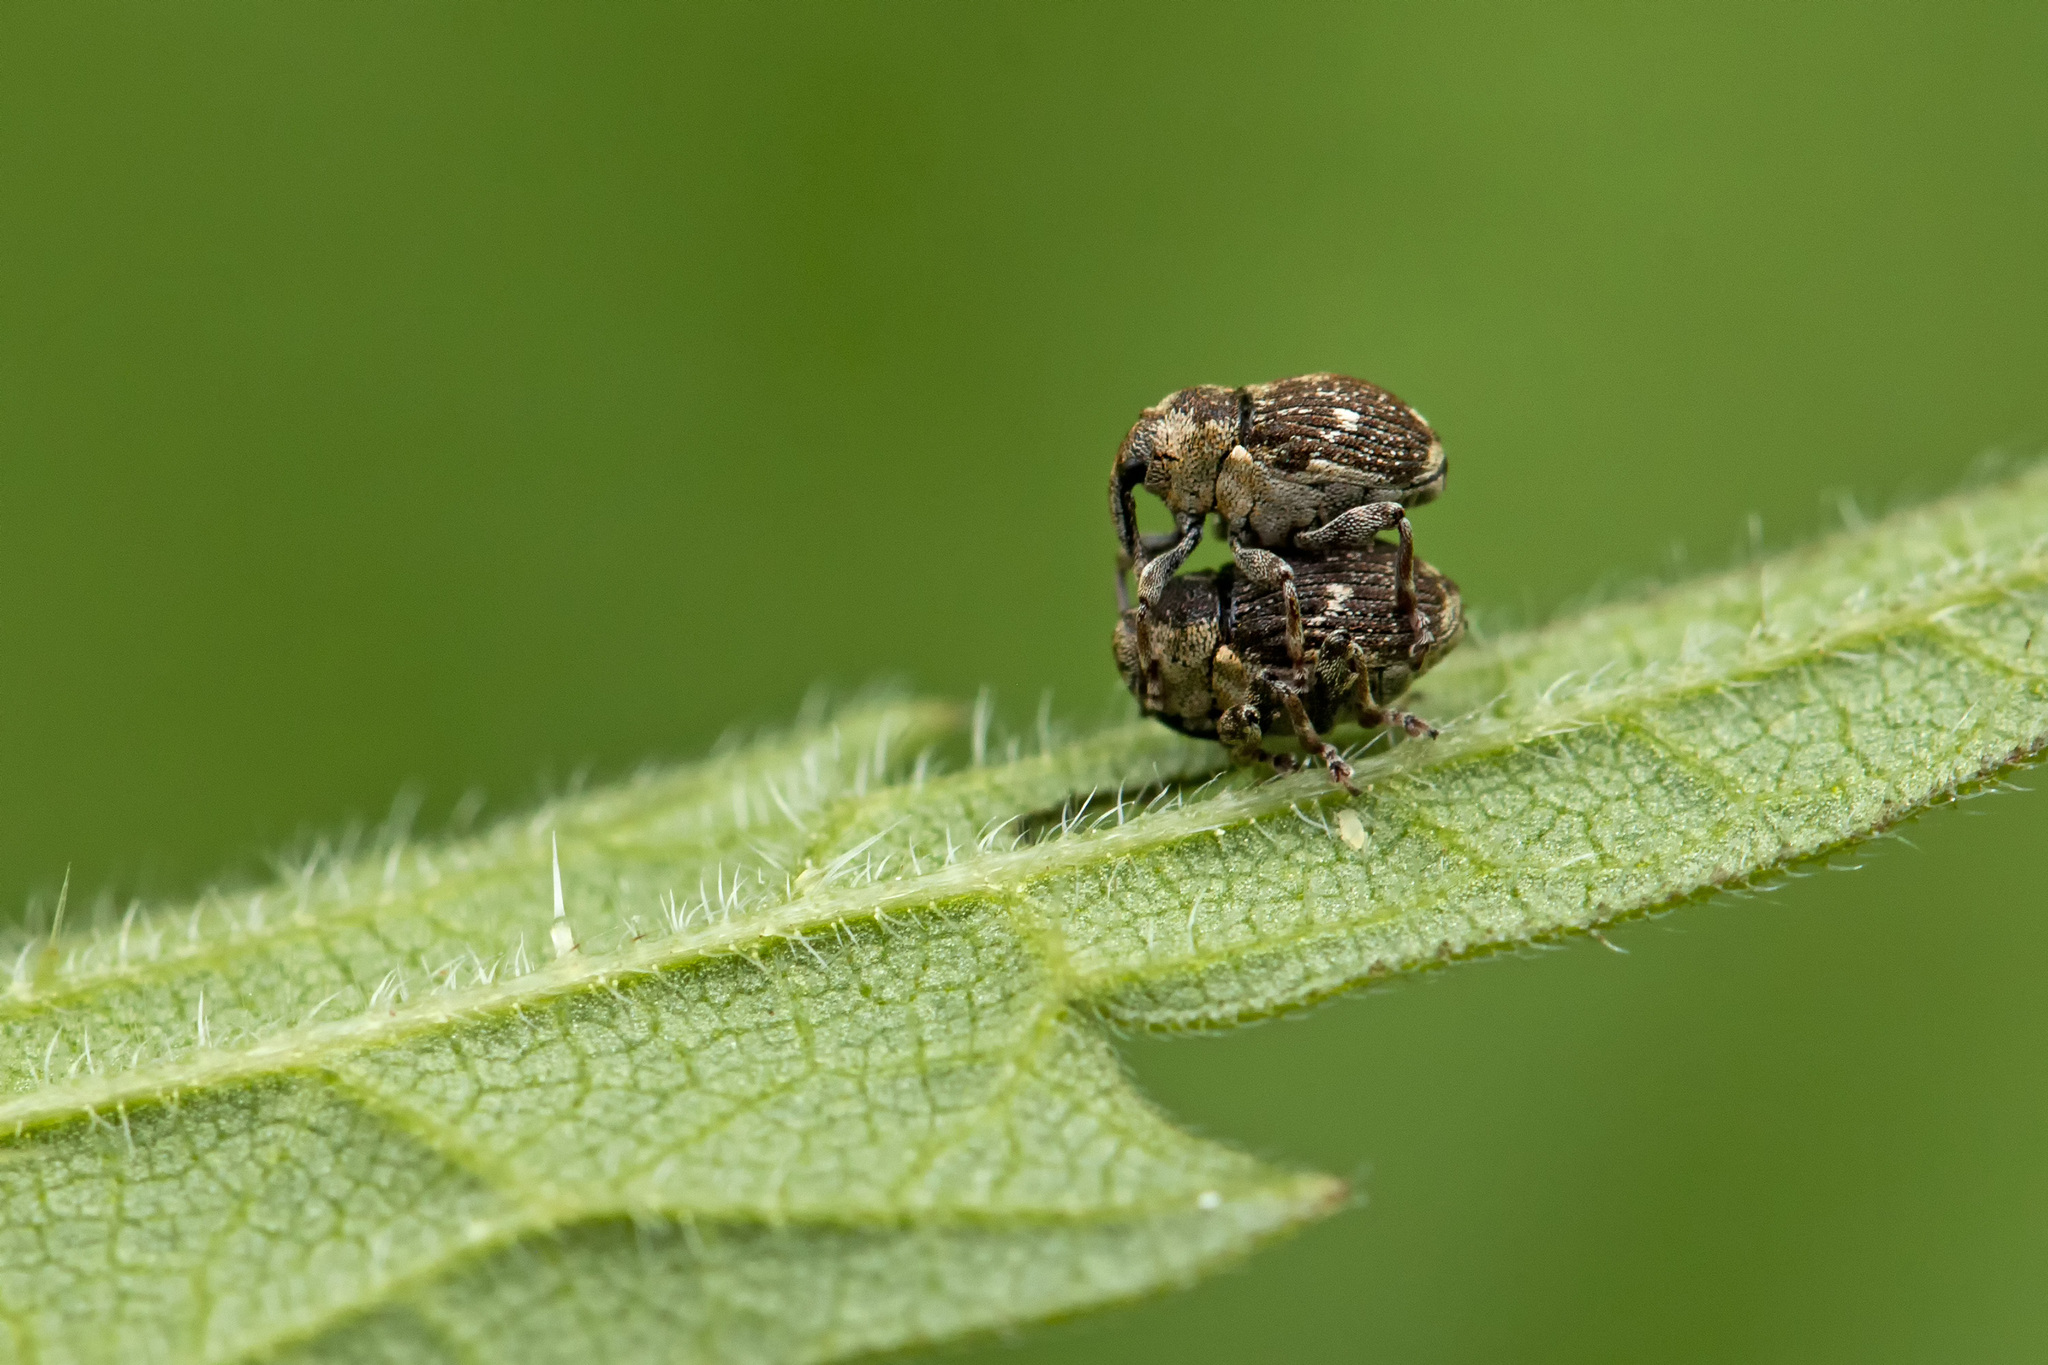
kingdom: Animalia
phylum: Arthropoda
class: Insecta
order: Coleoptera
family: Curculionidae
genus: Nedyus
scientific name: Nedyus quadrimaculatus
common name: Small nettle weevil
